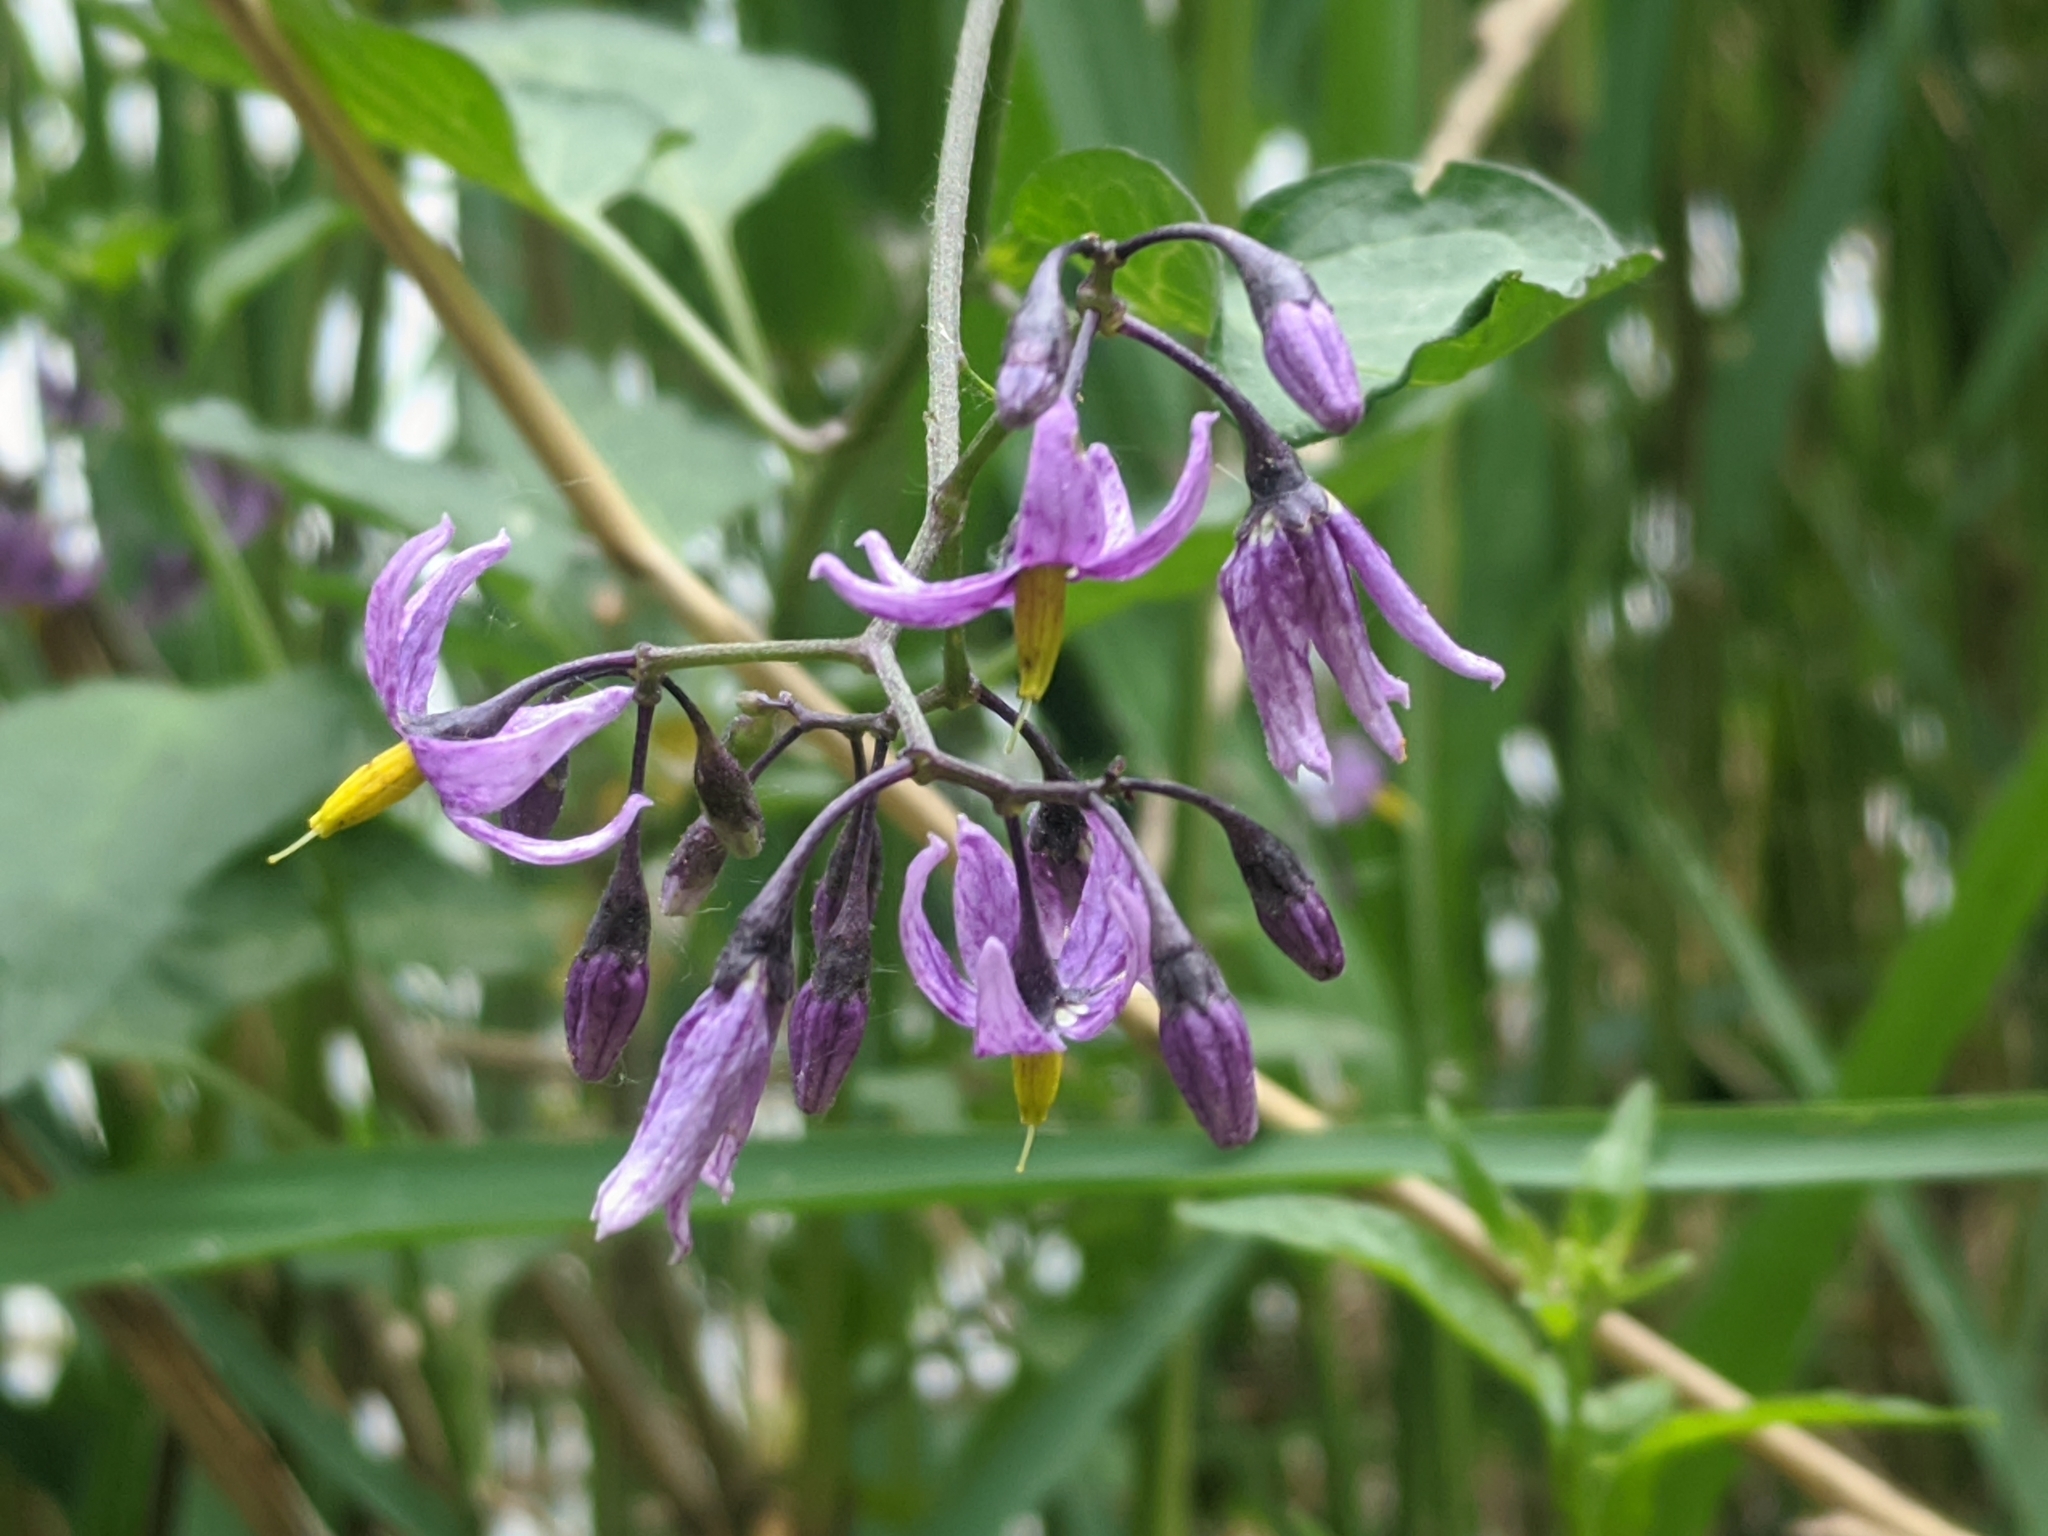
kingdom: Plantae
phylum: Tracheophyta
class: Magnoliopsida
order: Solanales
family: Solanaceae
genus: Solanum
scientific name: Solanum dulcamara
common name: Climbing nightshade
